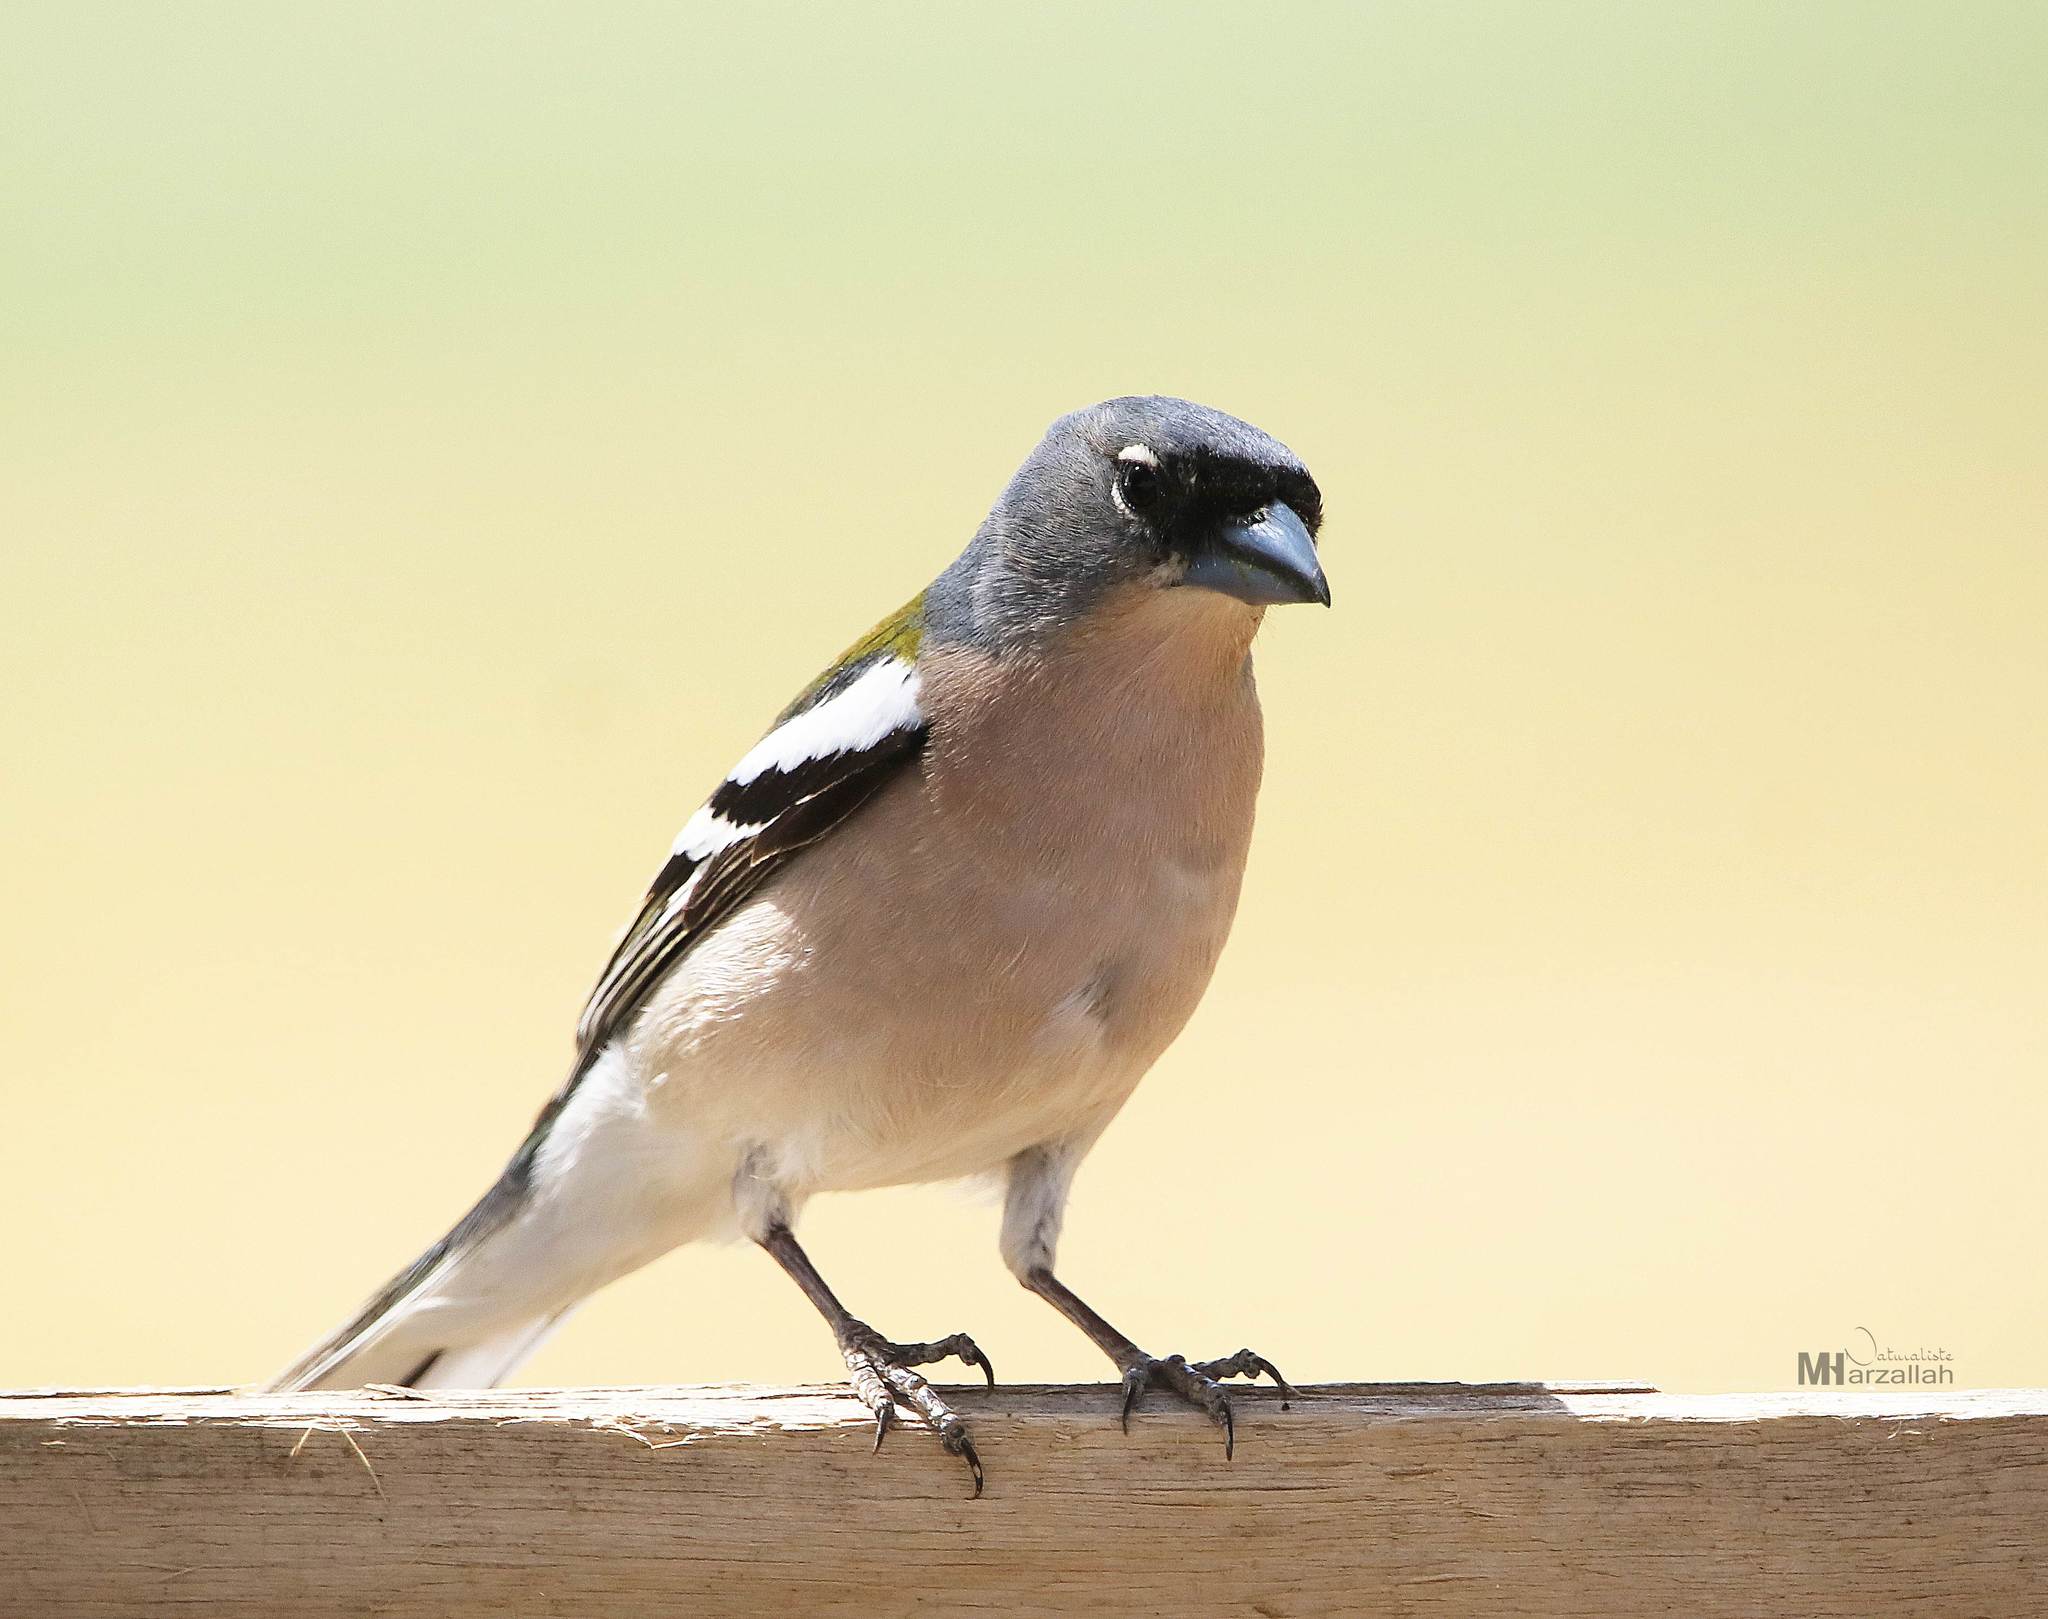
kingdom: Animalia
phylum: Chordata
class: Aves
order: Passeriformes
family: Fringillidae
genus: Fringilla
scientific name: Fringilla spodiogenys
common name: African chaffinch
